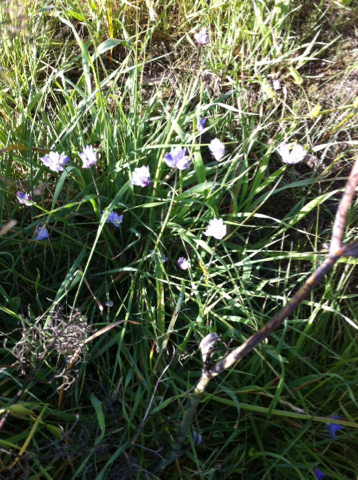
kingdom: Plantae
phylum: Tracheophyta
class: Liliopsida
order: Asparagales
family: Asparagaceae
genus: Dipterostemon
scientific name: Dipterostemon capitatus
